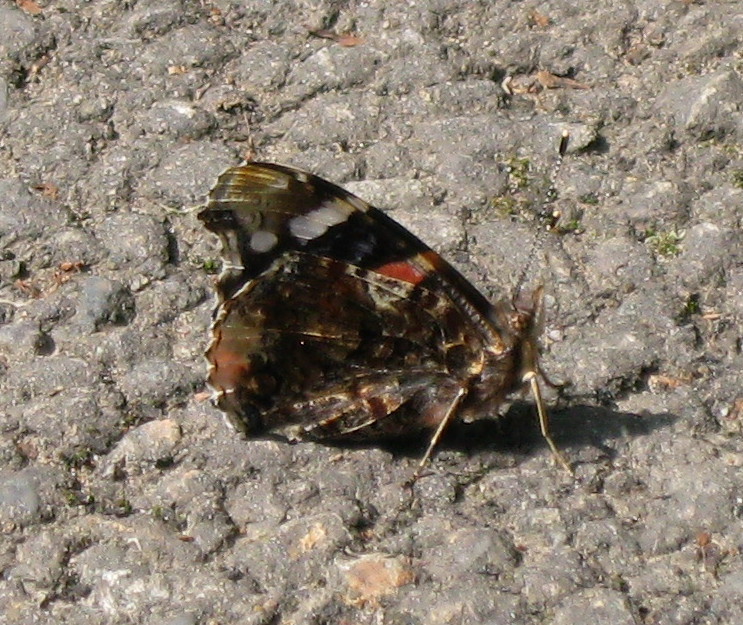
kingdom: Animalia
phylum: Arthropoda
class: Insecta
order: Lepidoptera
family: Nymphalidae
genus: Vanessa
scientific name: Vanessa atalanta
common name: Red admiral
